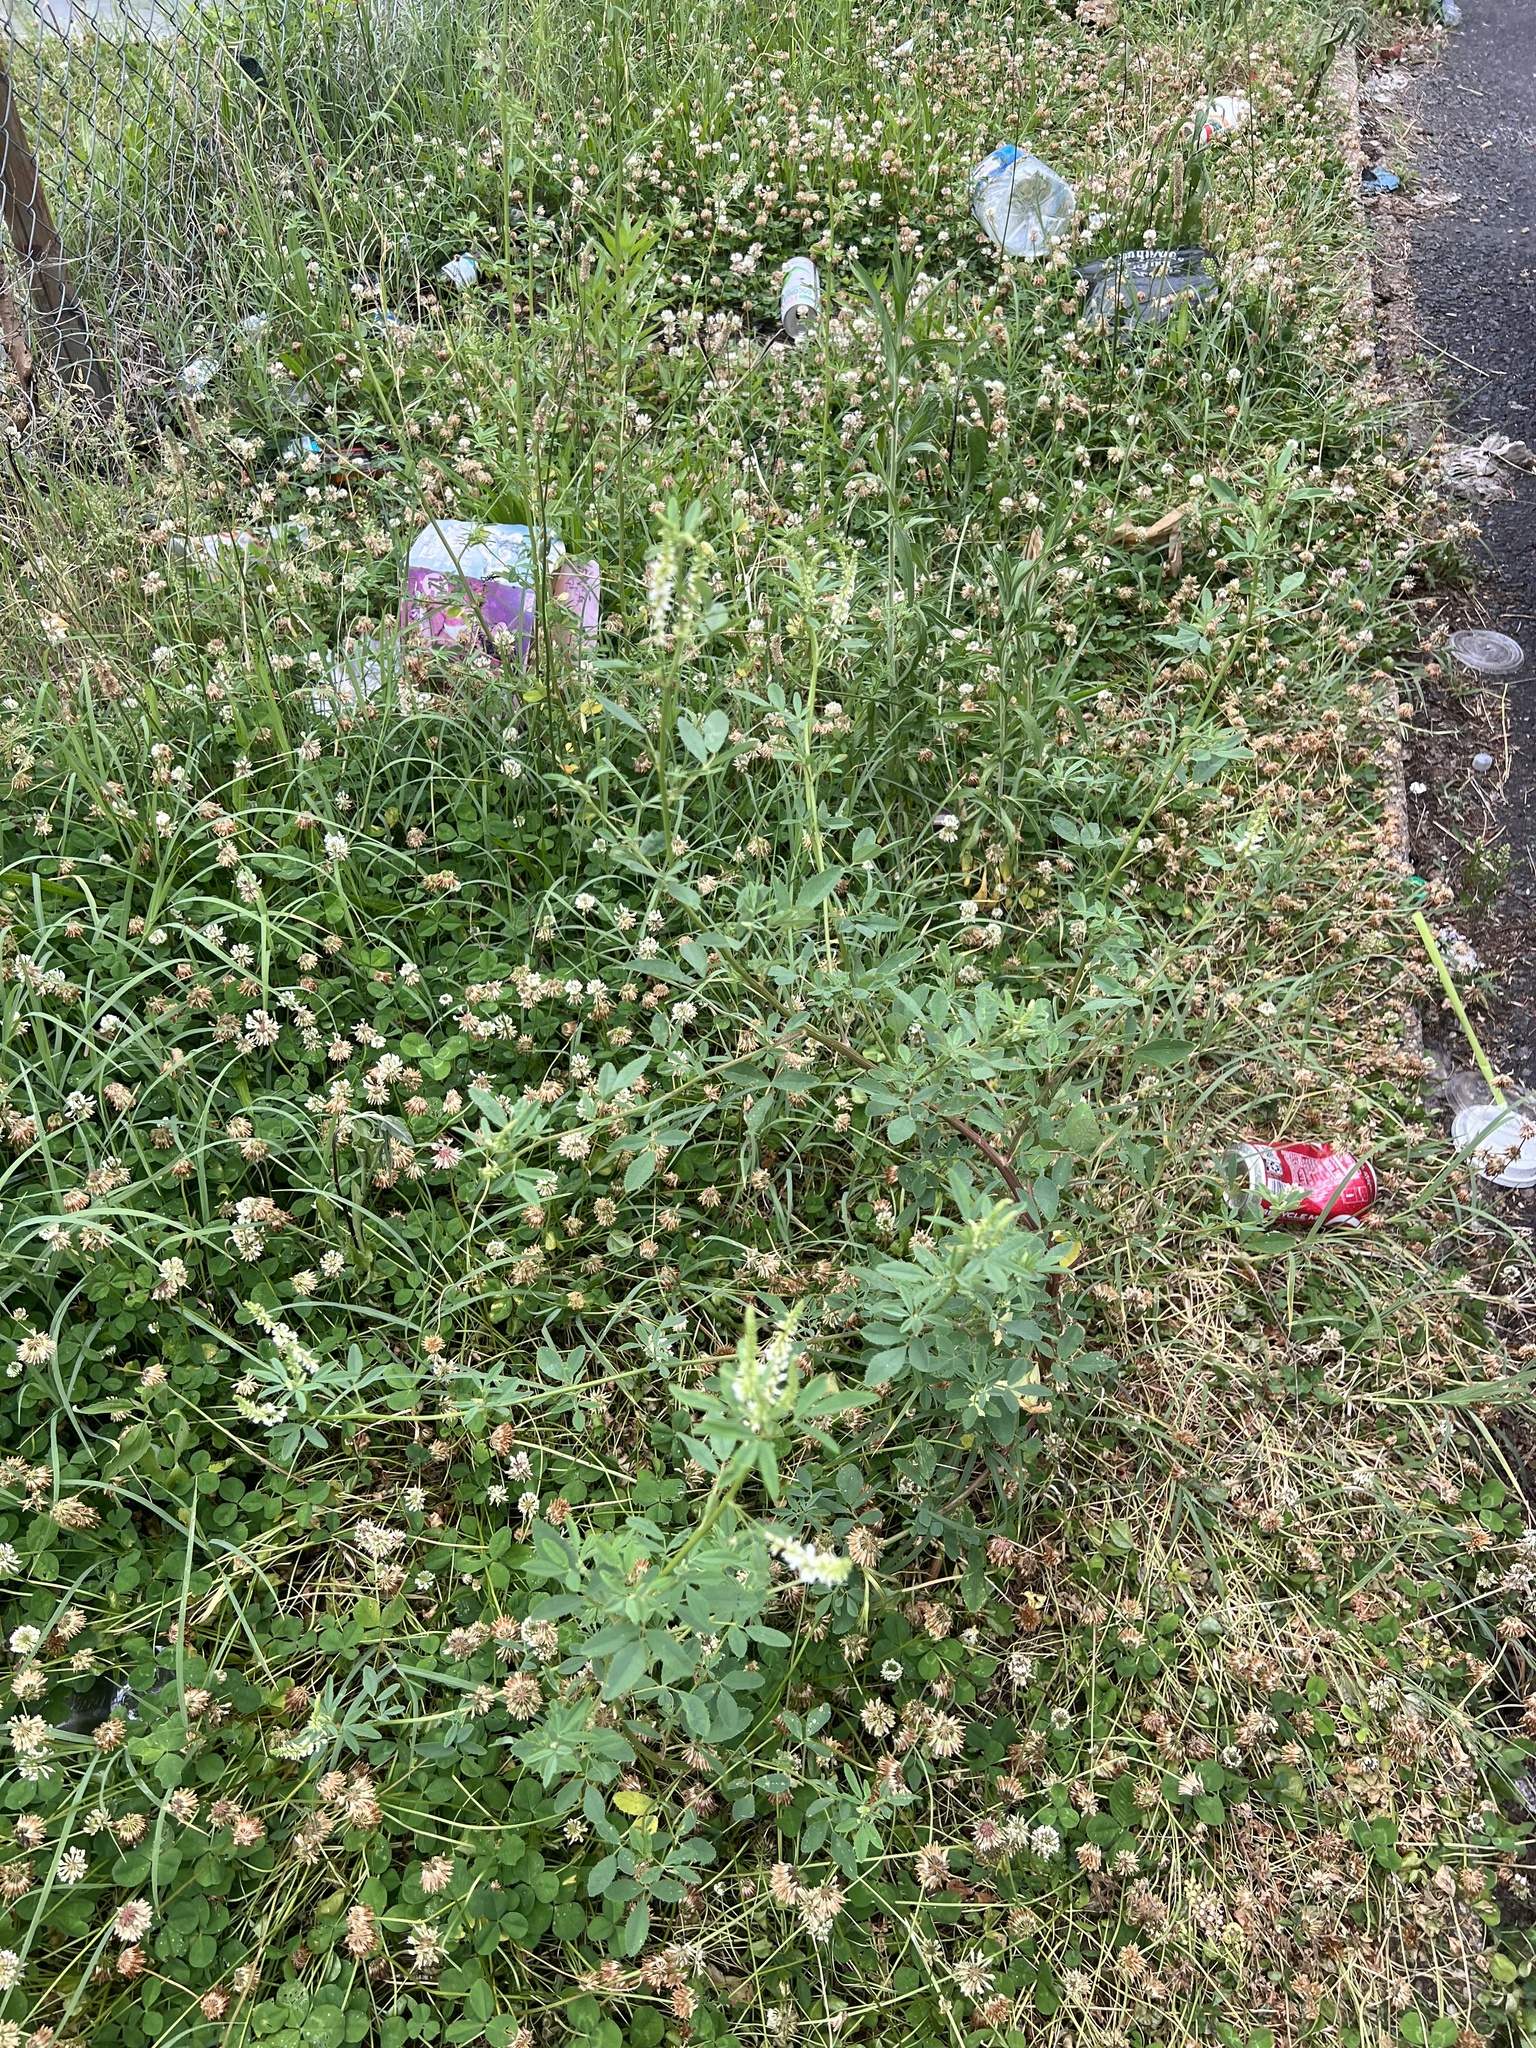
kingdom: Plantae
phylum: Tracheophyta
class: Magnoliopsida
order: Fabales
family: Fabaceae
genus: Melilotus
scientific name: Melilotus albus
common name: White melilot
